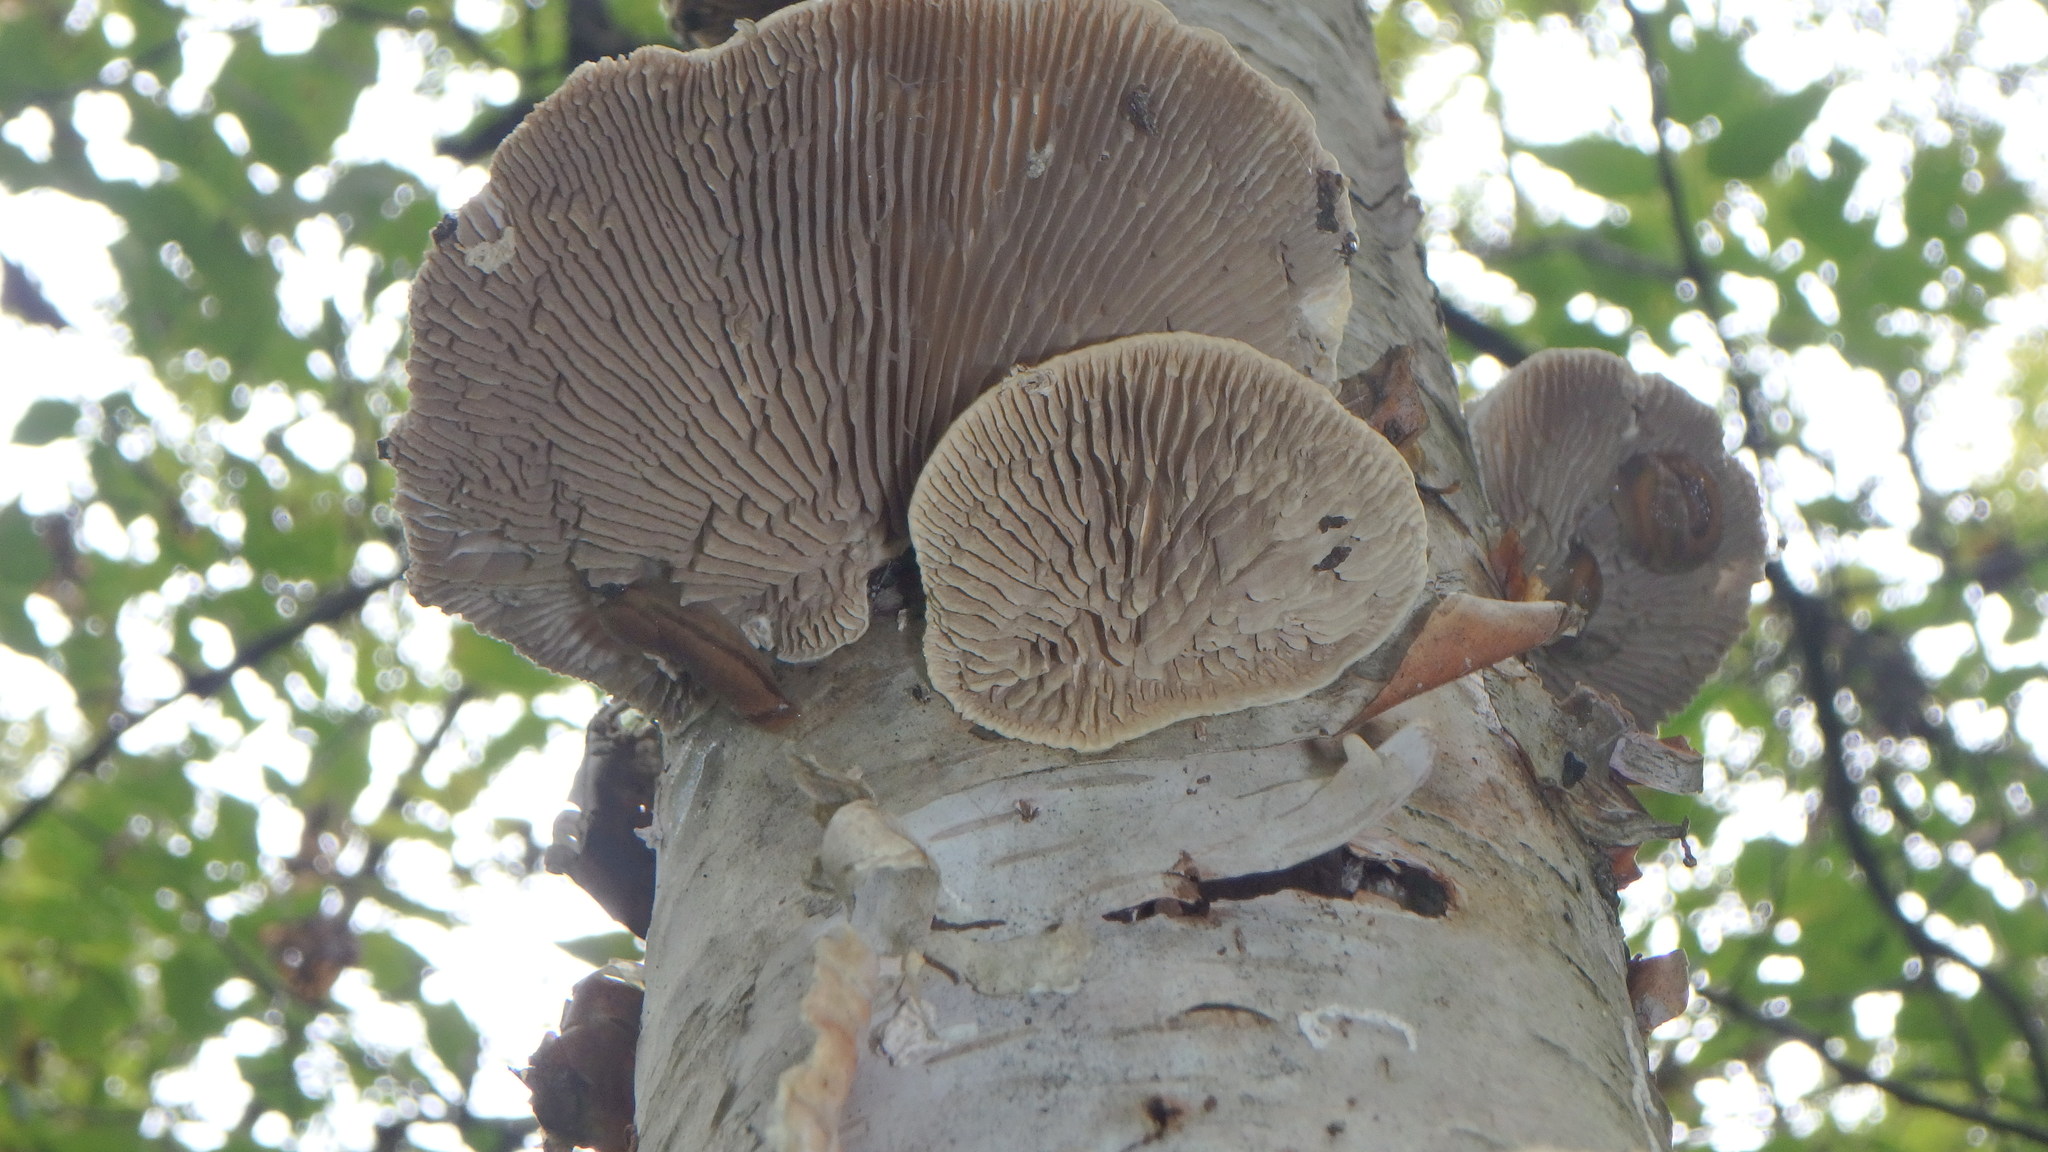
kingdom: Fungi
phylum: Basidiomycota
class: Agaricomycetes
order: Polyporales
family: Polyporaceae
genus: Lenzites
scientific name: Lenzites betulinus
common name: Birch mazegill
